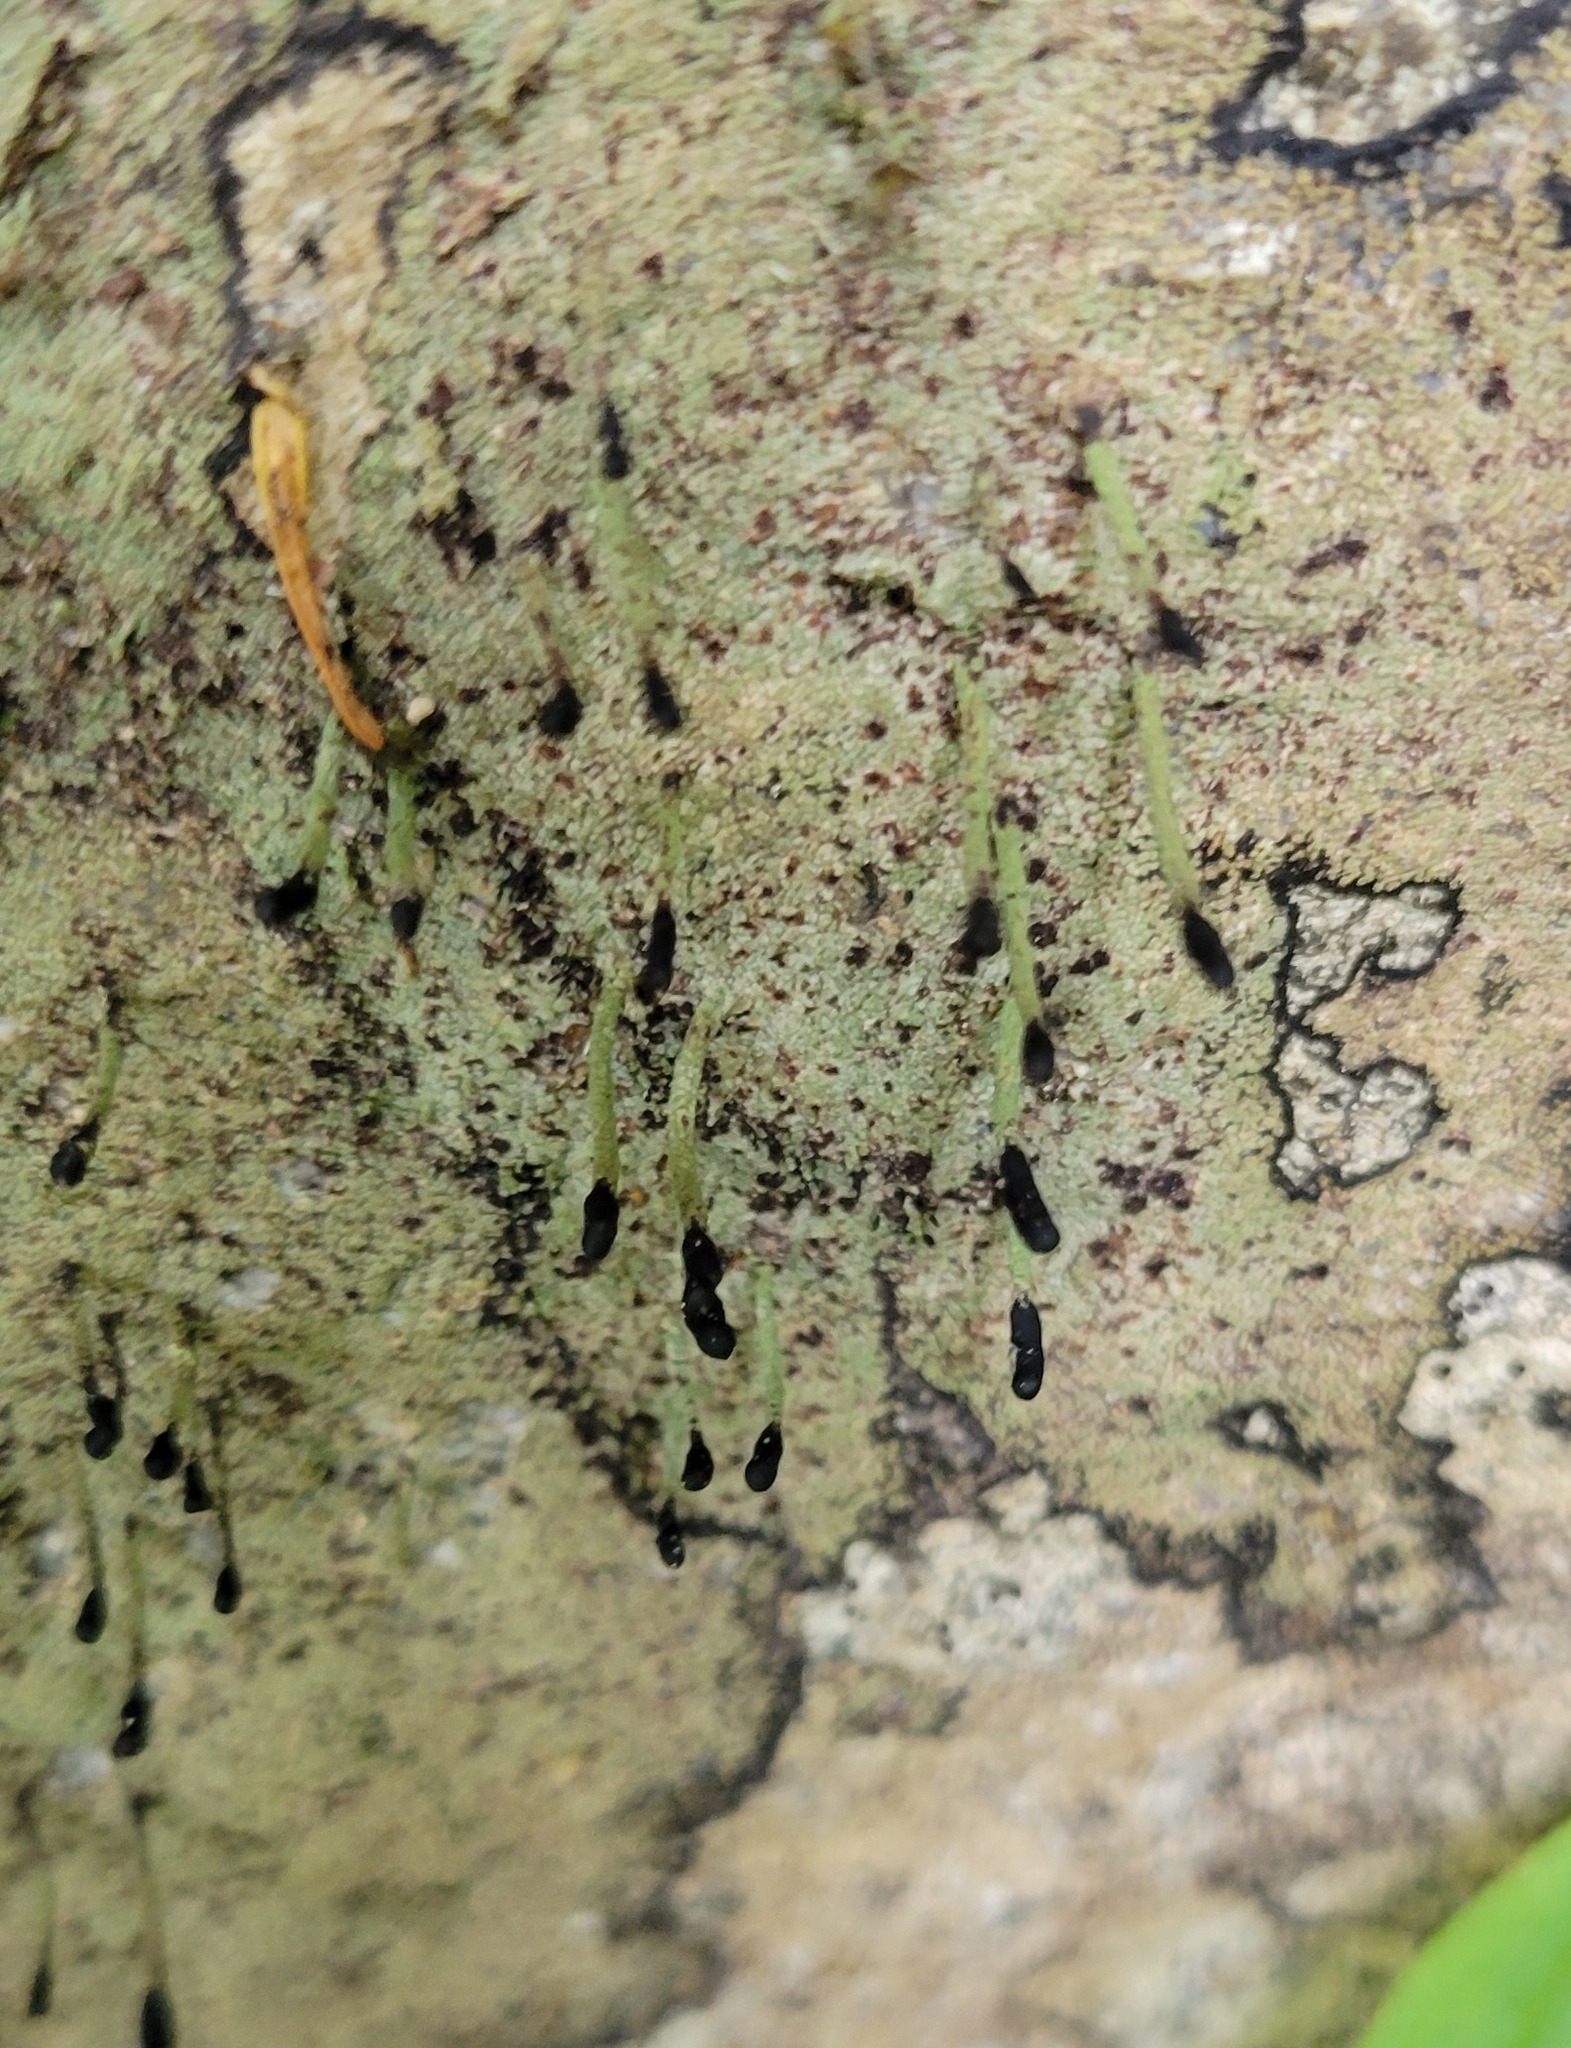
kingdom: Fungi
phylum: Ascomycota
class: Lecanoromycetes
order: Lecanorales
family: Cladoniaceae
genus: Pilophorus
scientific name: Pilophorus clavatus
